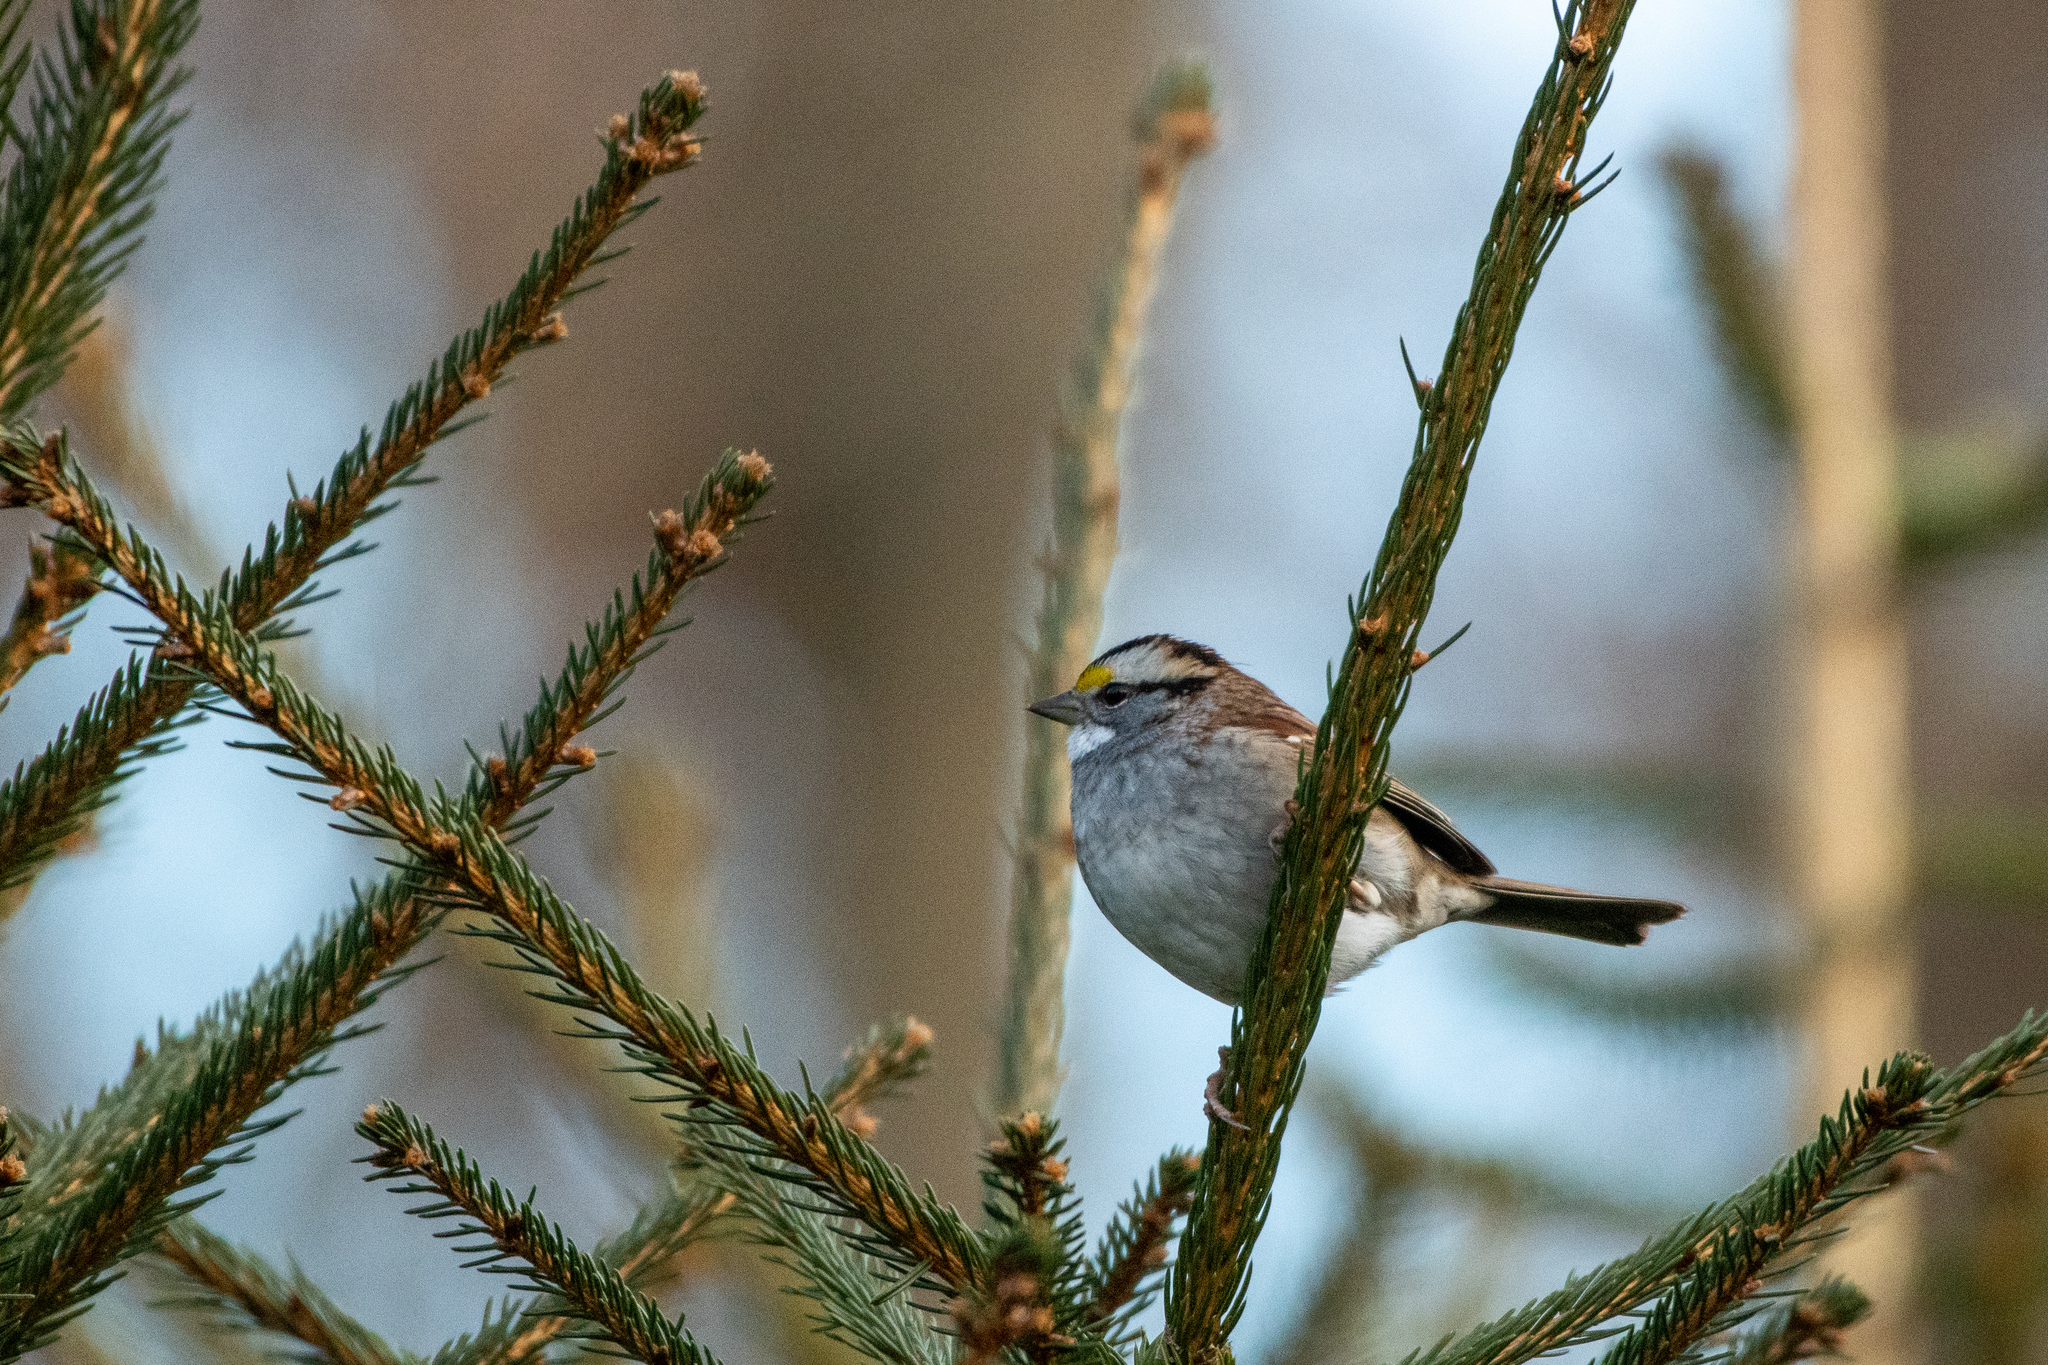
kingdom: Animalia
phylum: Chordata
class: Aves
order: Passeriformes
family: Passerellidae
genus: Zonotrichia
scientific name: Zonotrichia albicollis
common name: White-throated sparrow
